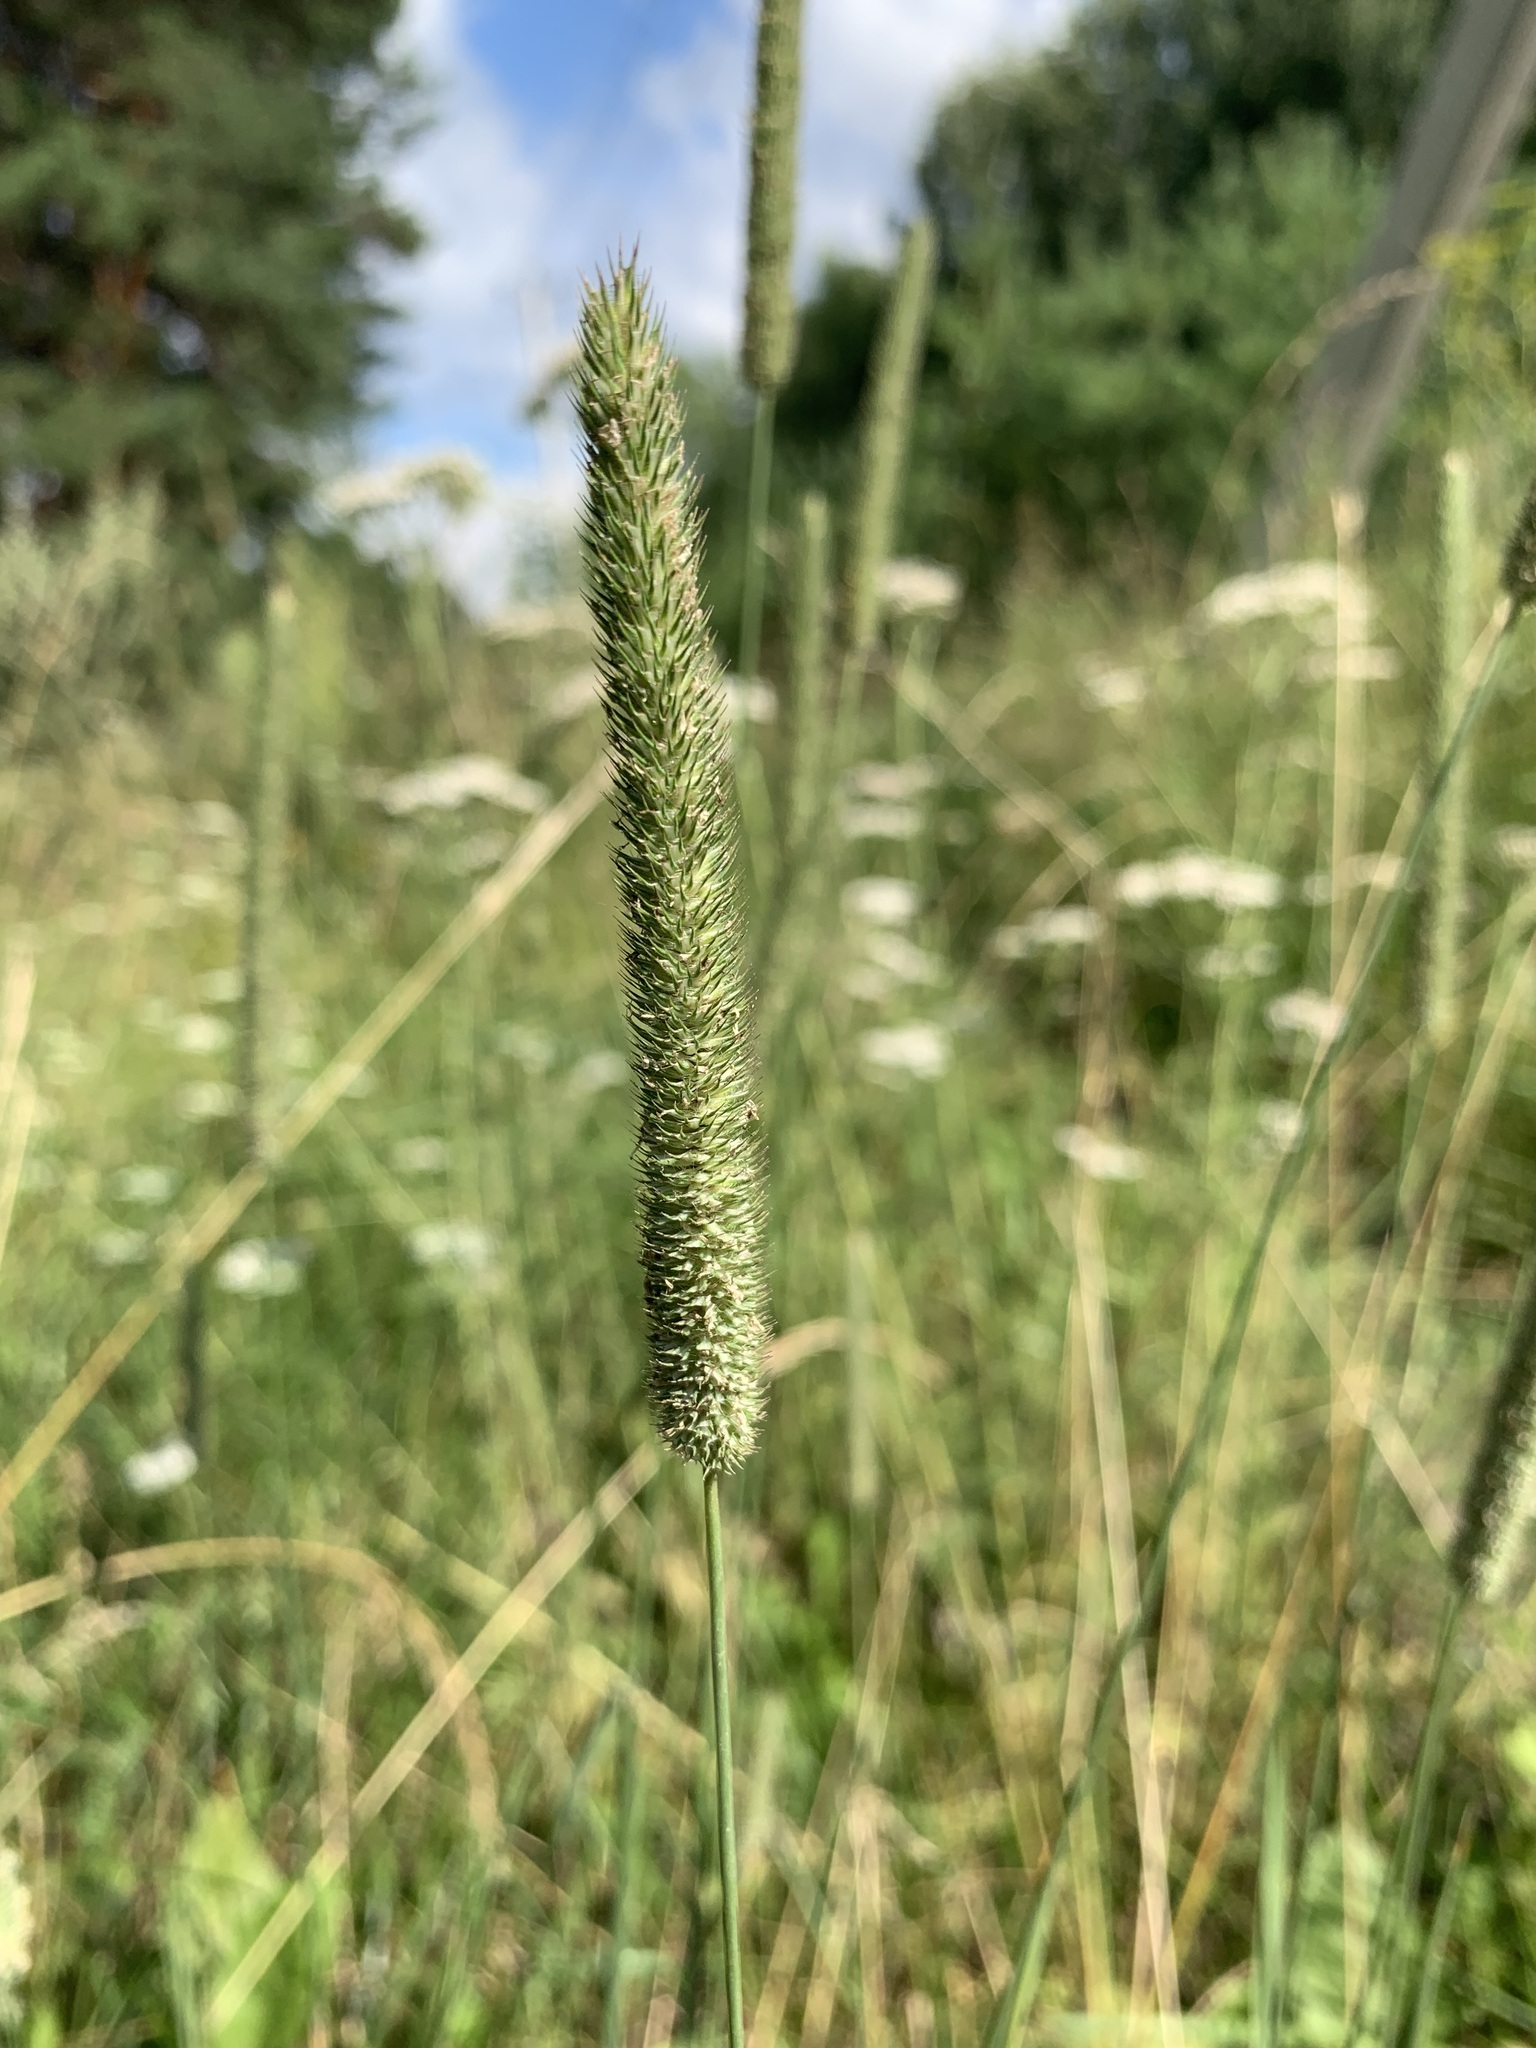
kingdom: Plantae
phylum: Tracheophyta
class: Liliopsida
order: Poales
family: Poaceae
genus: Phleum
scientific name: Phleum pratense
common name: Timothy grass
